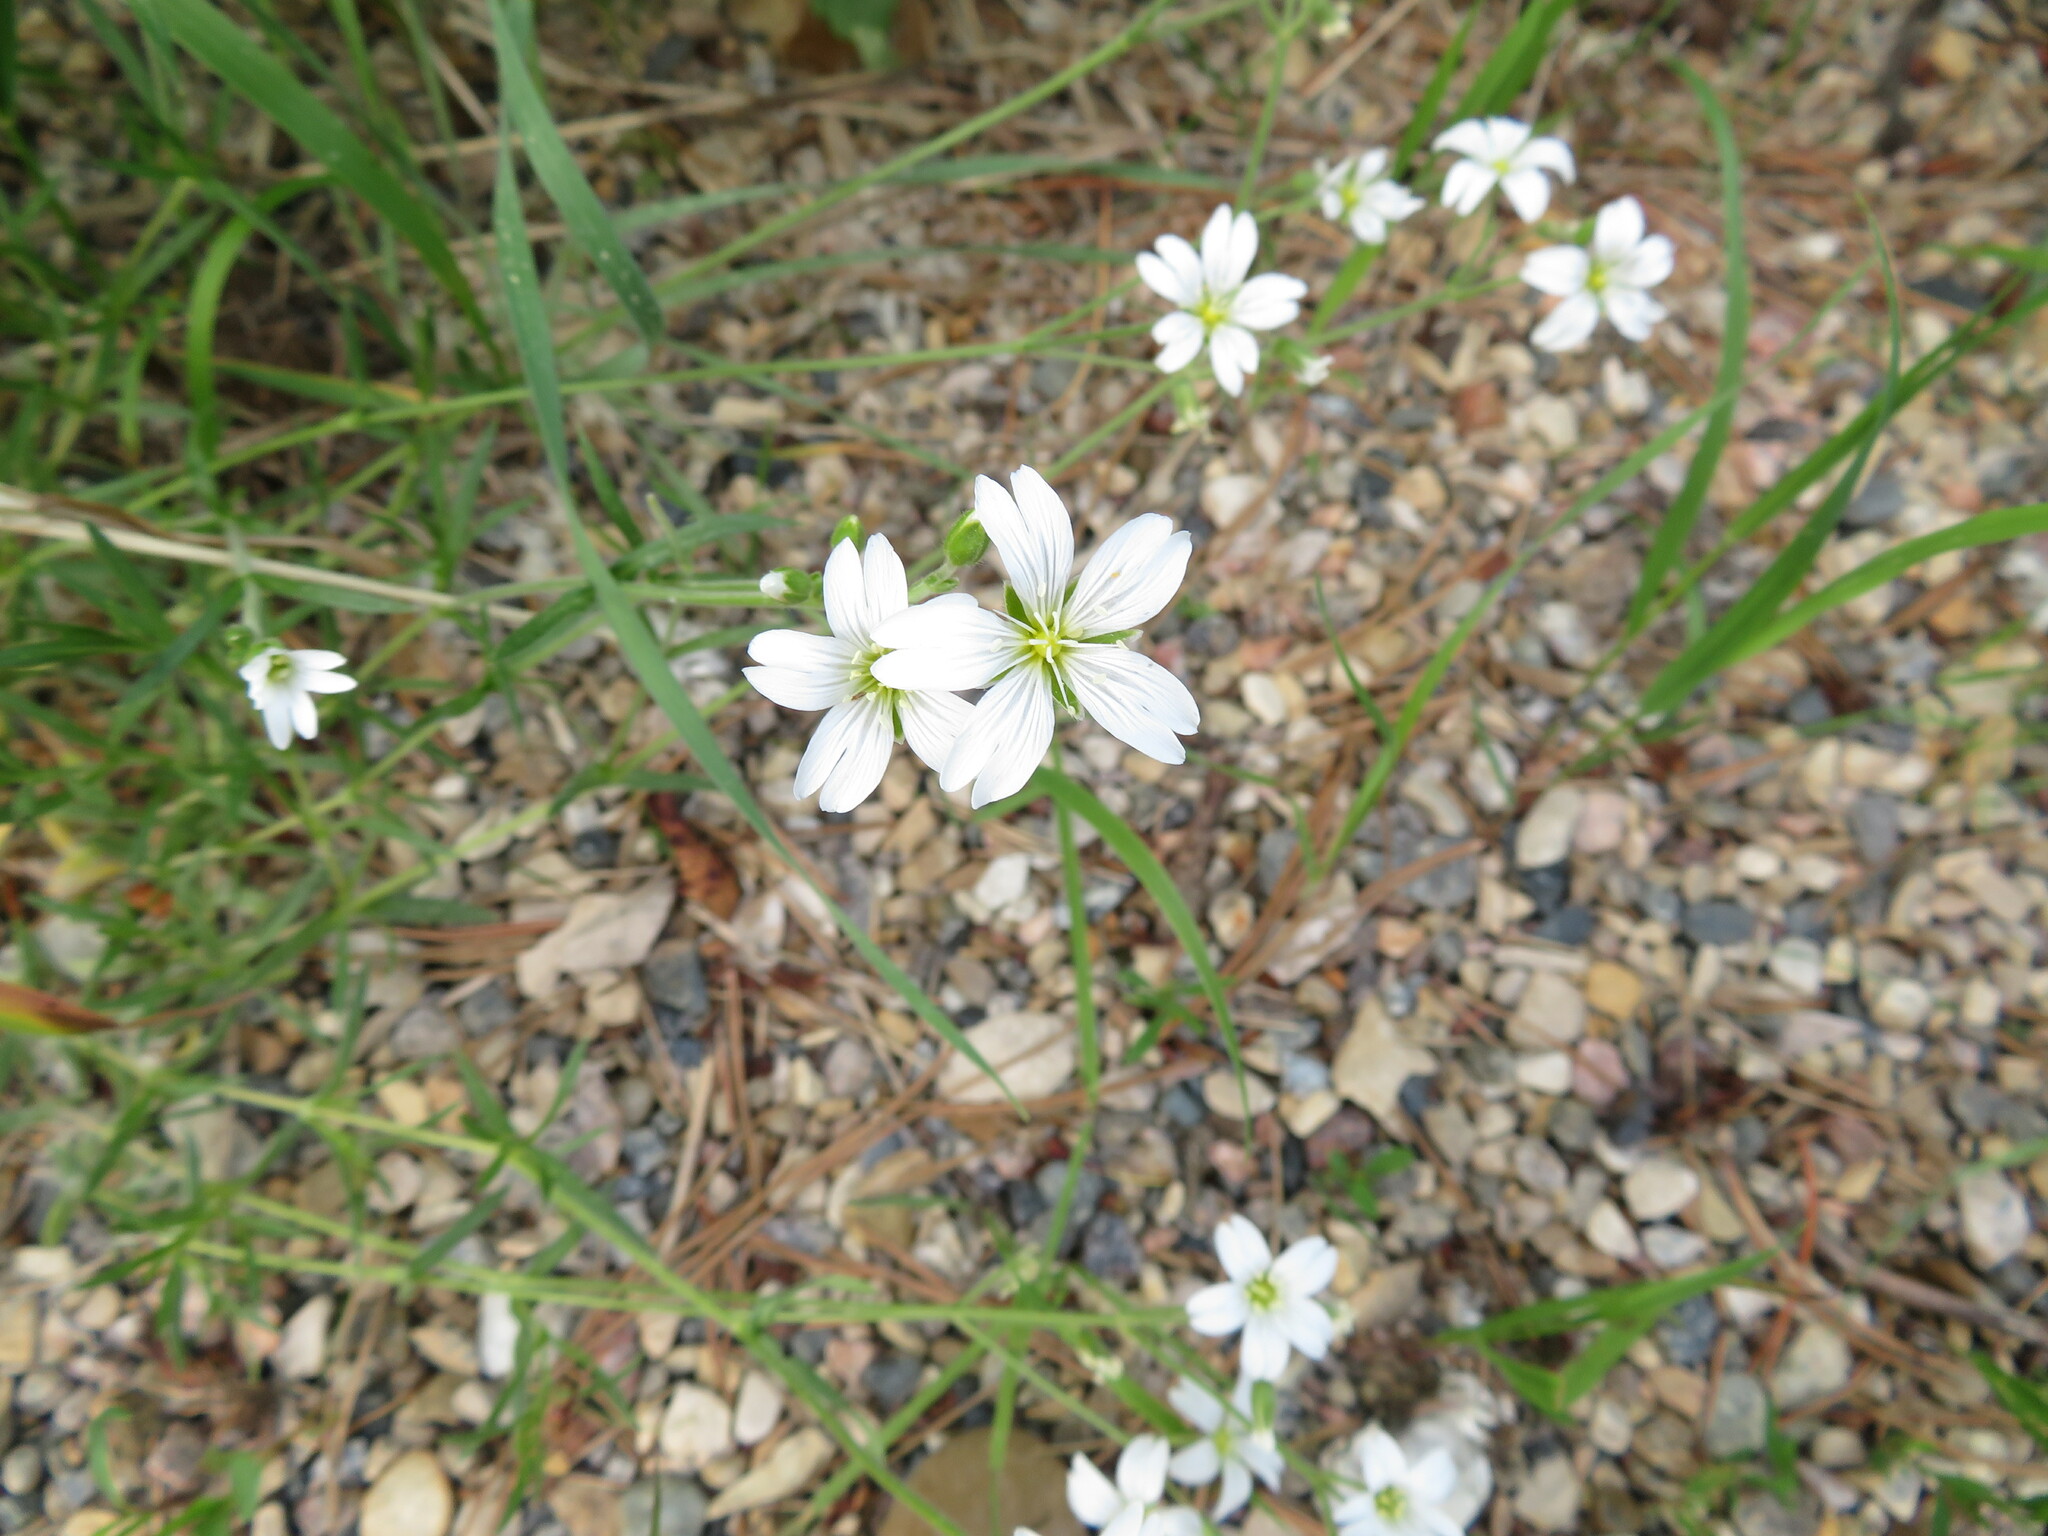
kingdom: Plantae
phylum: Tracheophyta
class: Magnoliopsida
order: Caryophyllales
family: Caryophyllaceae
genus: Cerastium
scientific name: Cerastium arvense
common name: Field mouse-ear
